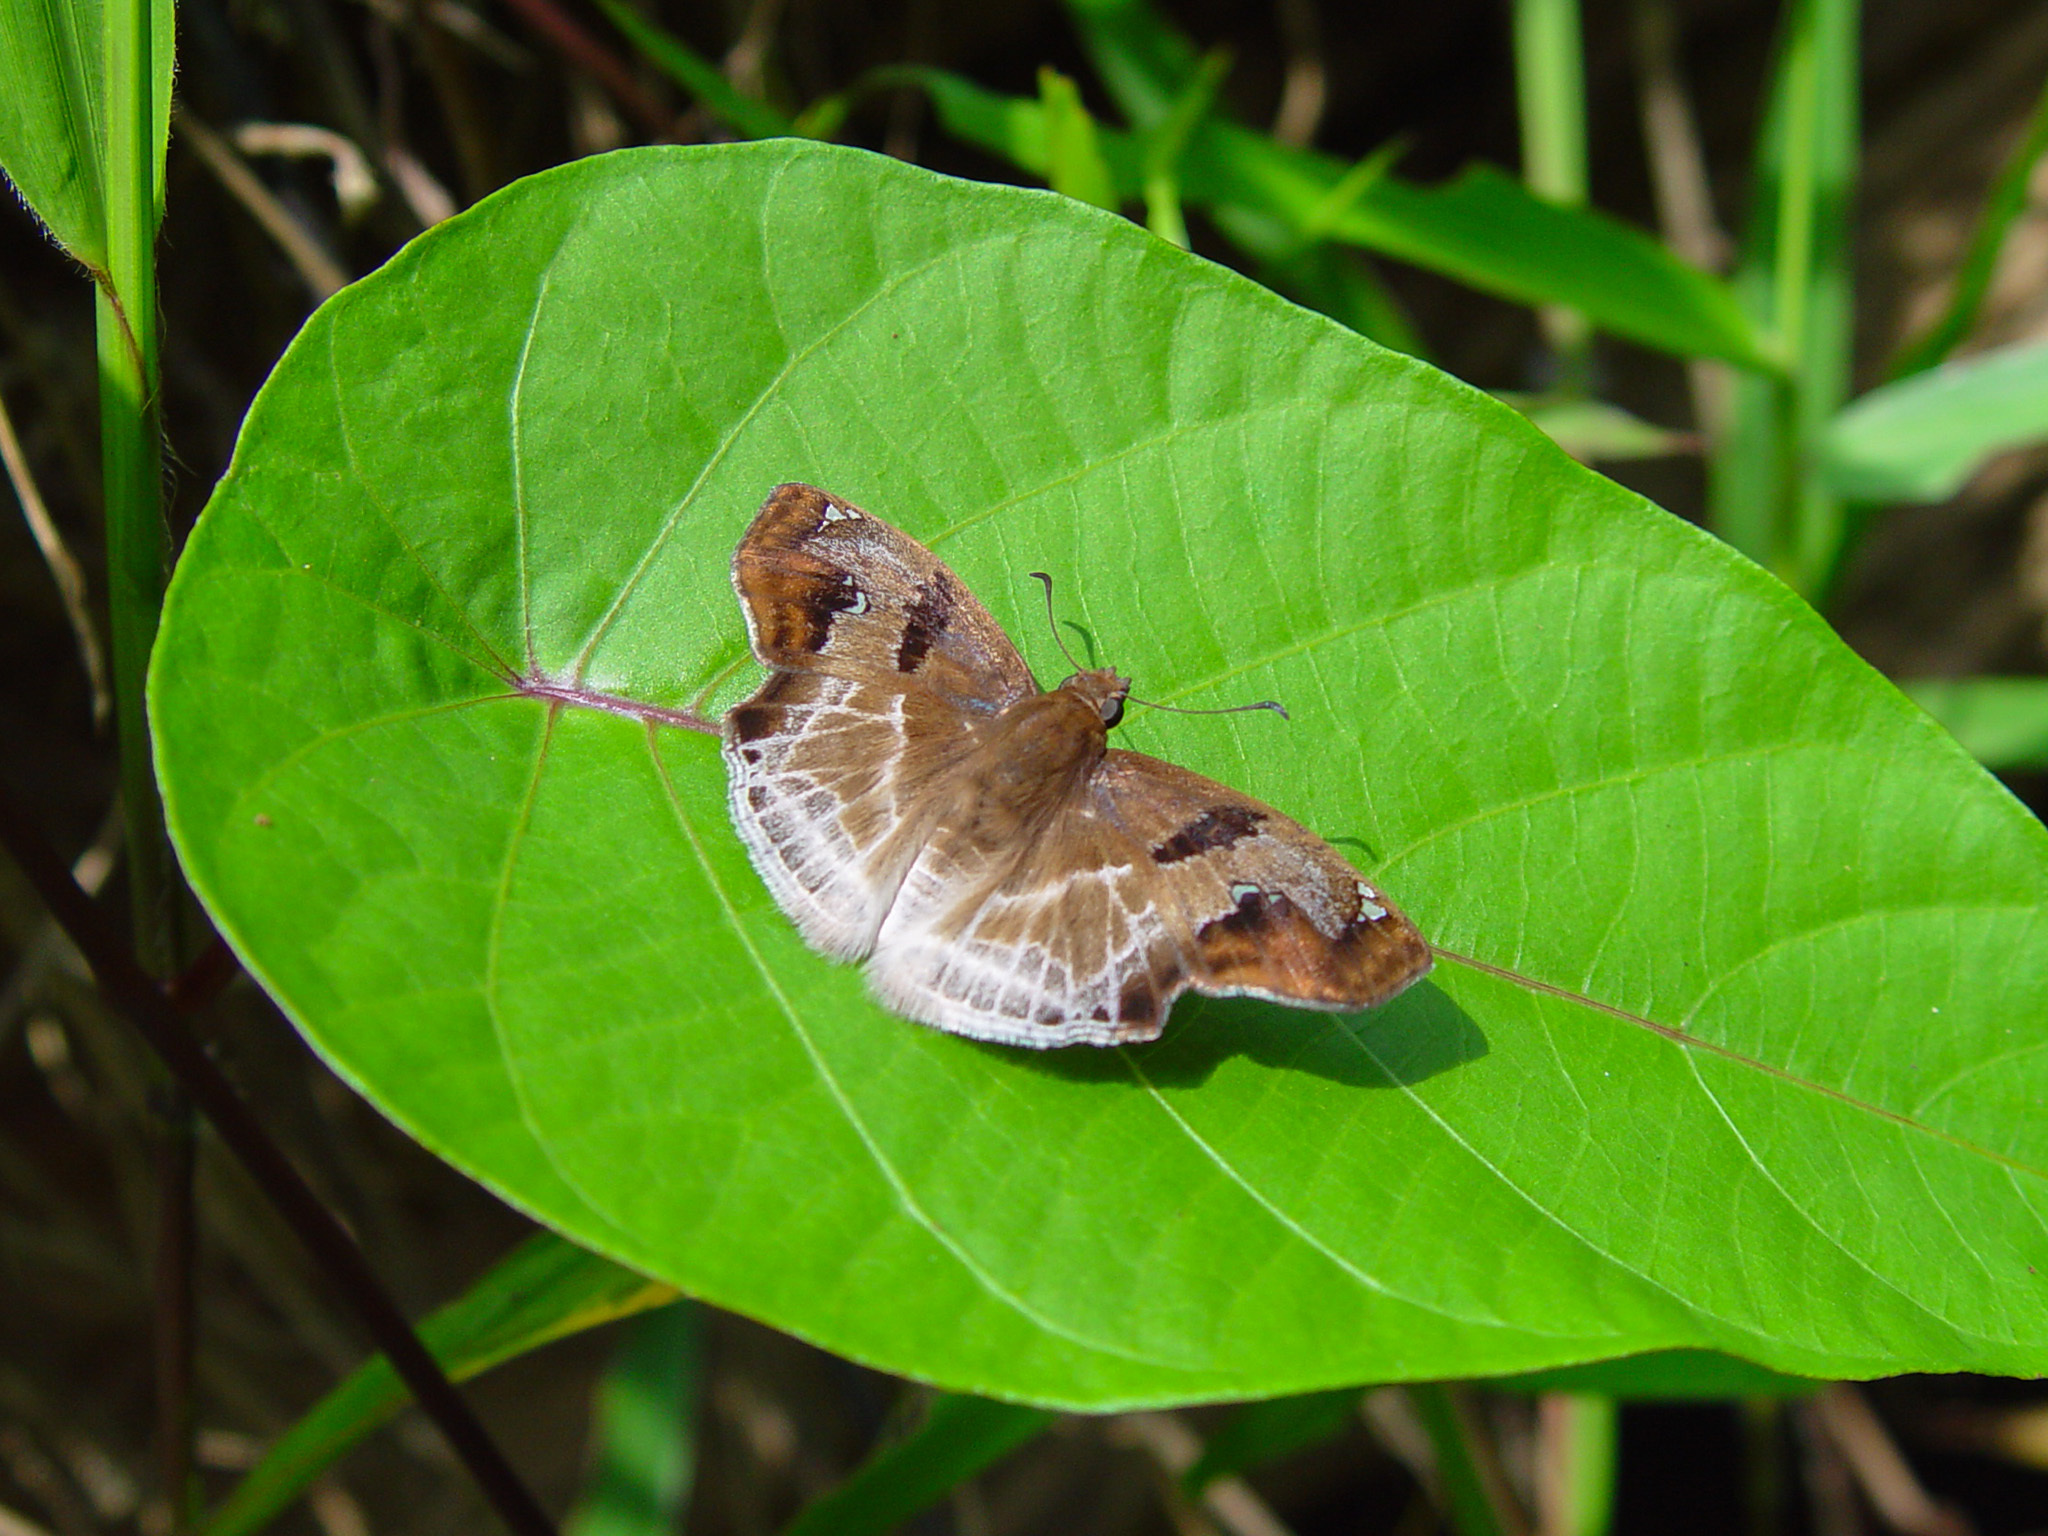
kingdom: Animalia
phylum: Arthropoda
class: Insecta
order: Lepidoptera
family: Hesperiidae
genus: Odontoptilum
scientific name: Odontoptilum angulata
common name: Chestnut banded angle
